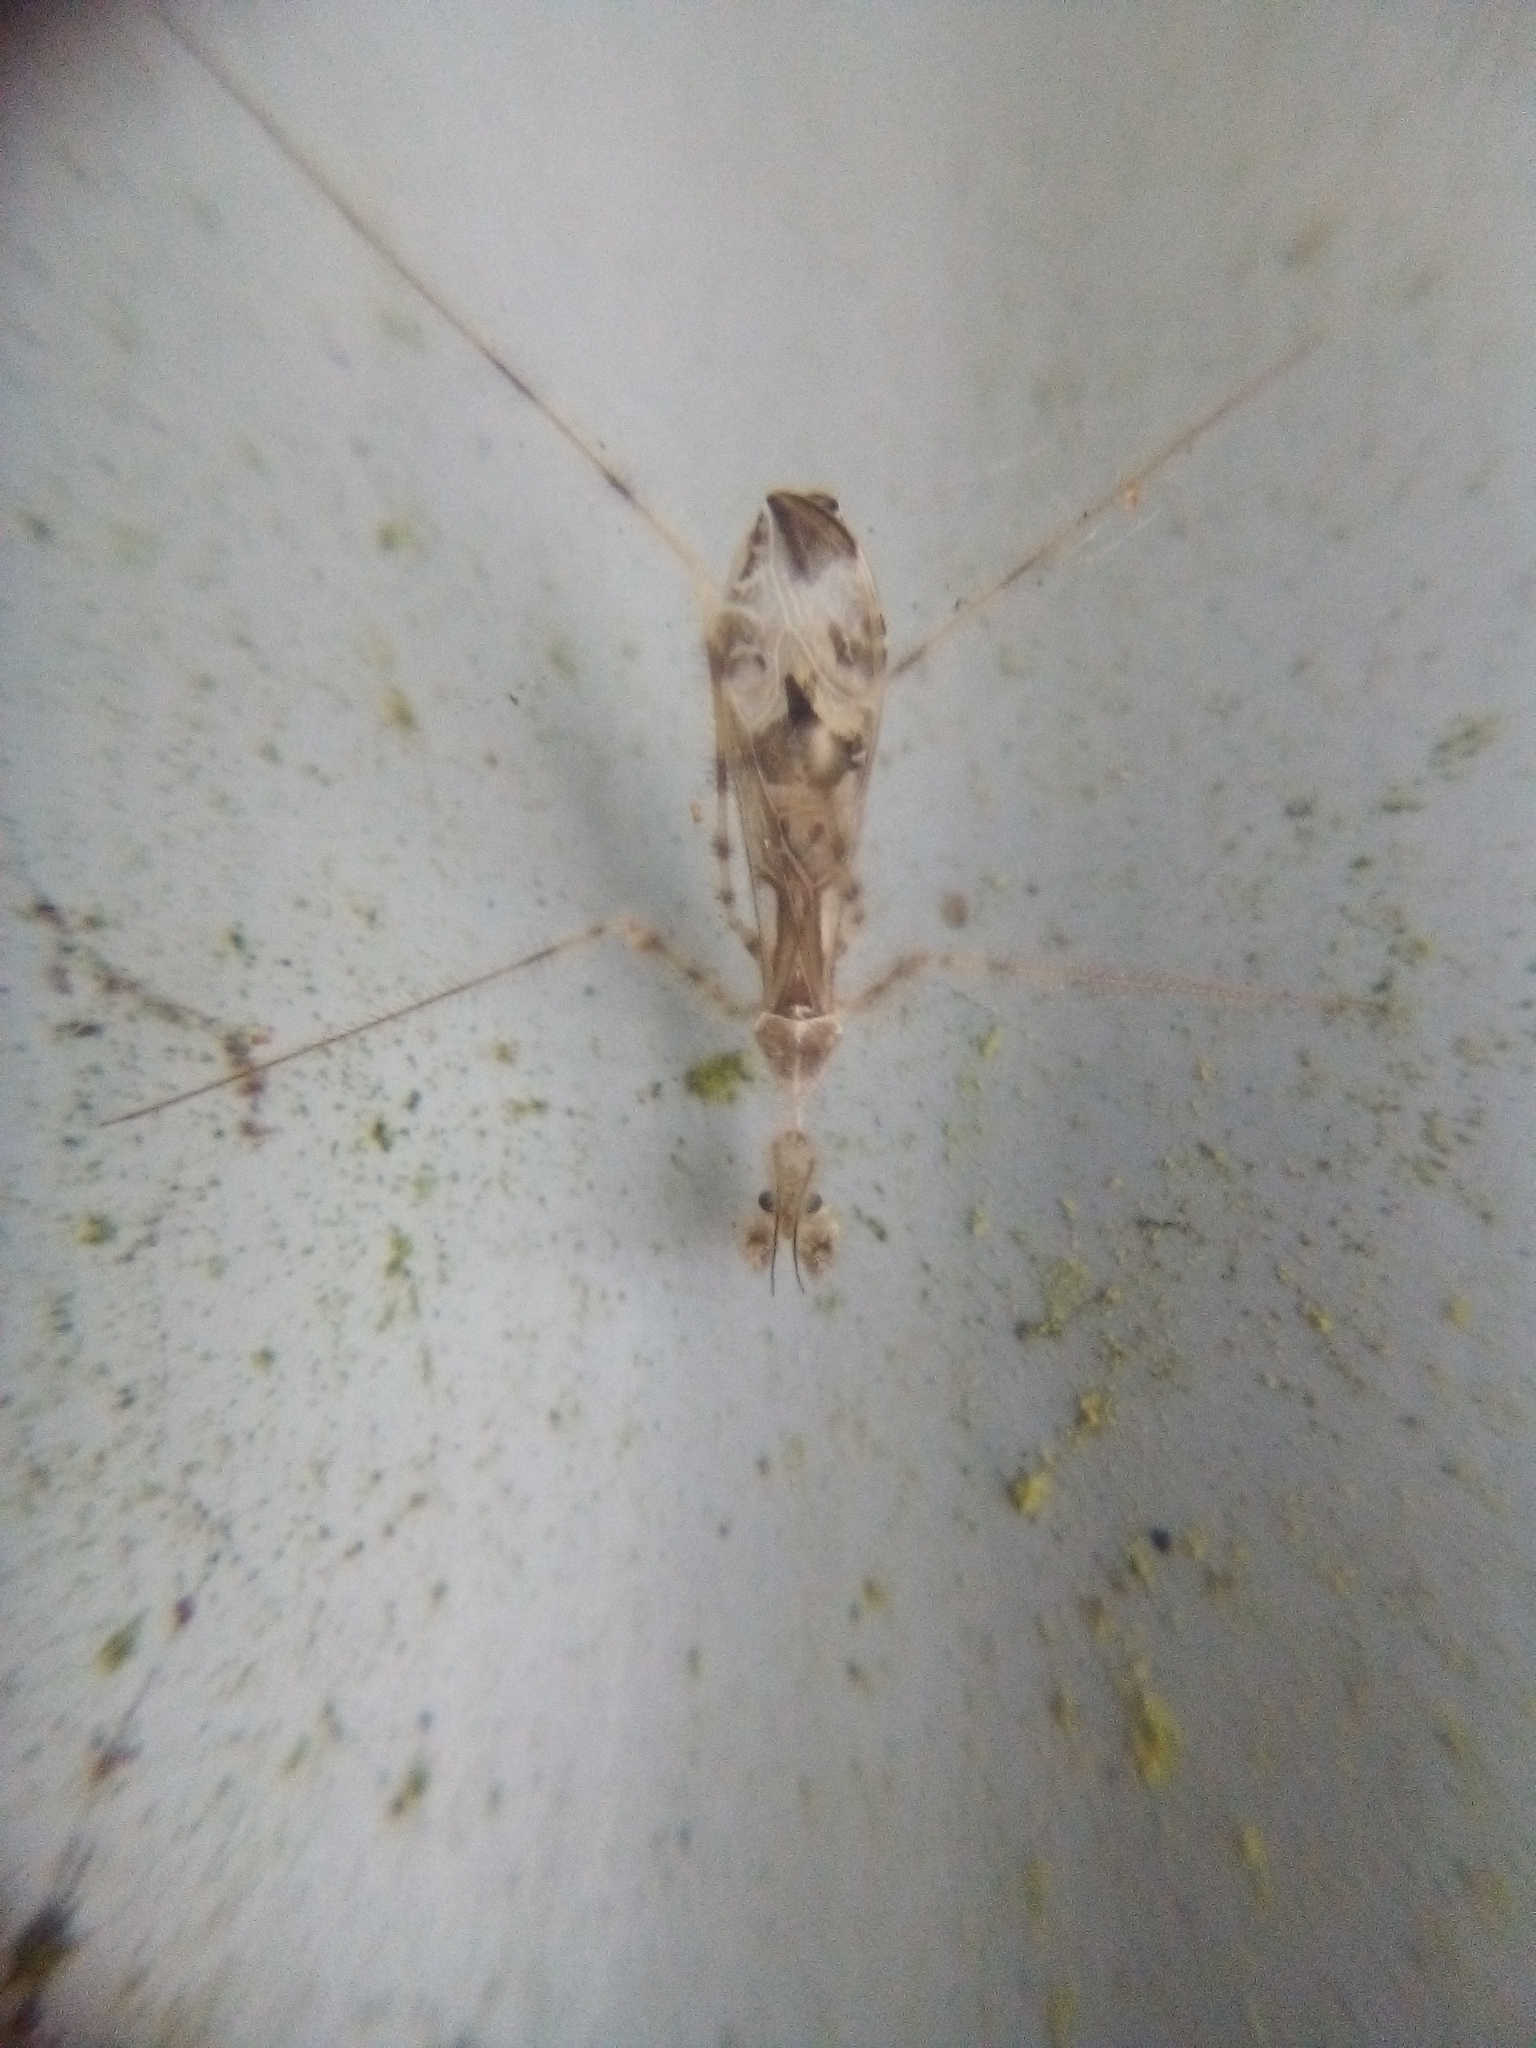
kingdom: Animalia
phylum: Arthropoda
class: Insecta
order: Hemiptera
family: Reduviidae
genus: Stenolemus
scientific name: Stenolemus fraterculus
